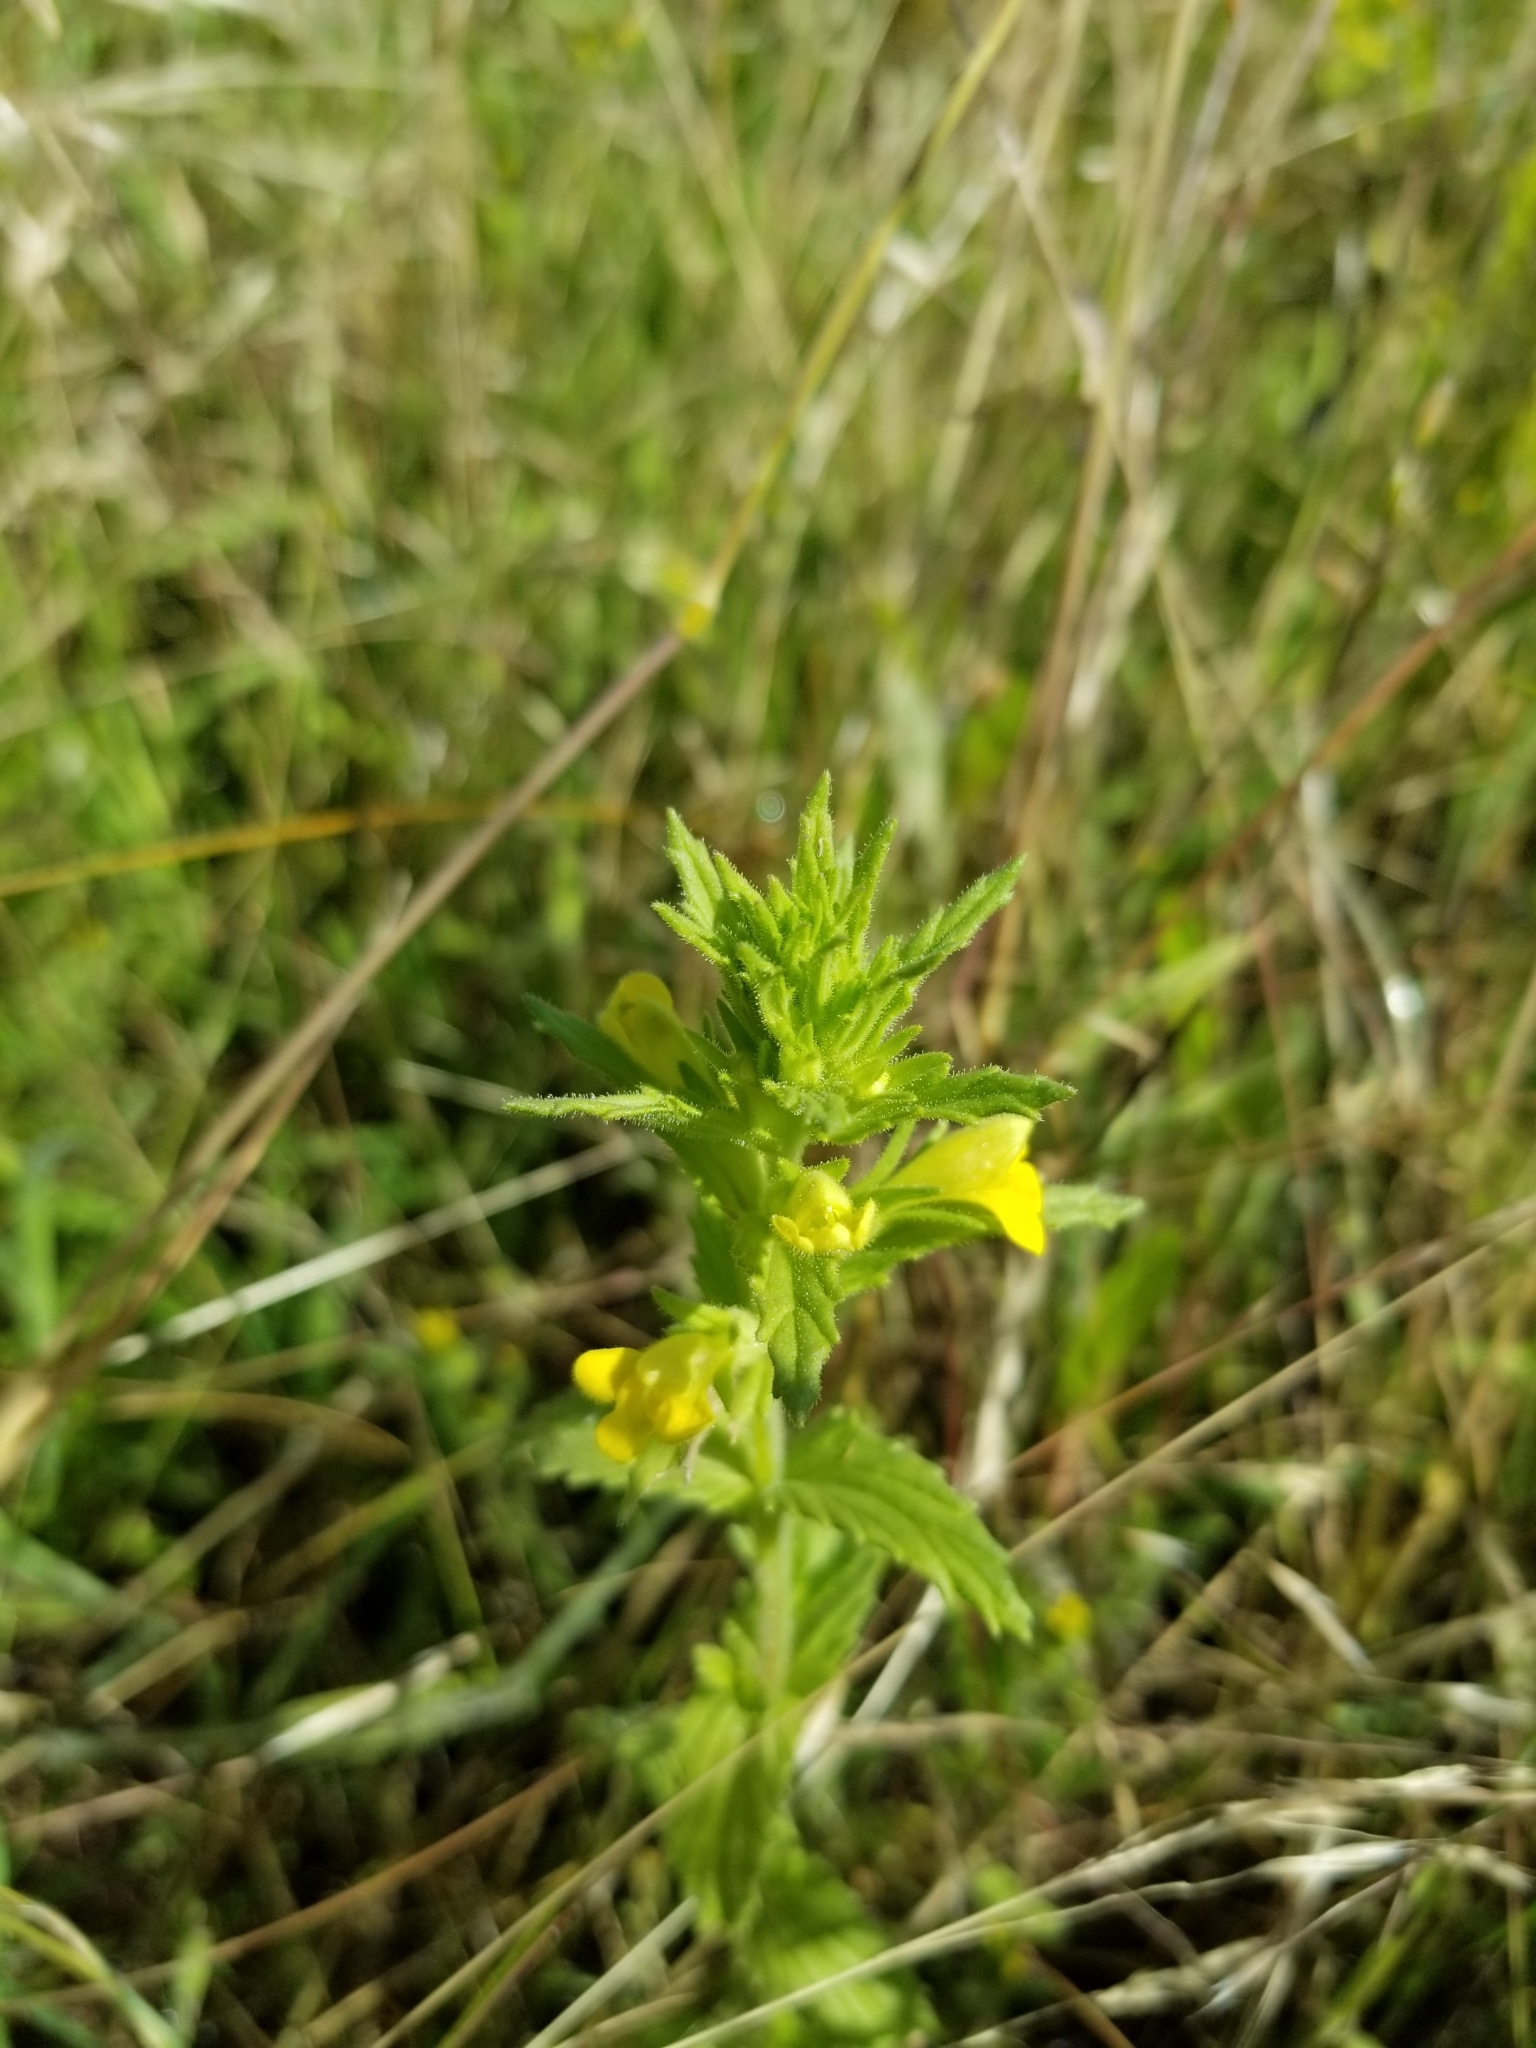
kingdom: Plantae
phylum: Tracheophyta
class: Magnoliopsida
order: Lamiales
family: Orobanchaceae
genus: Bellardia
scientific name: Bellardia viscosa
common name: Sticky parentucellia
